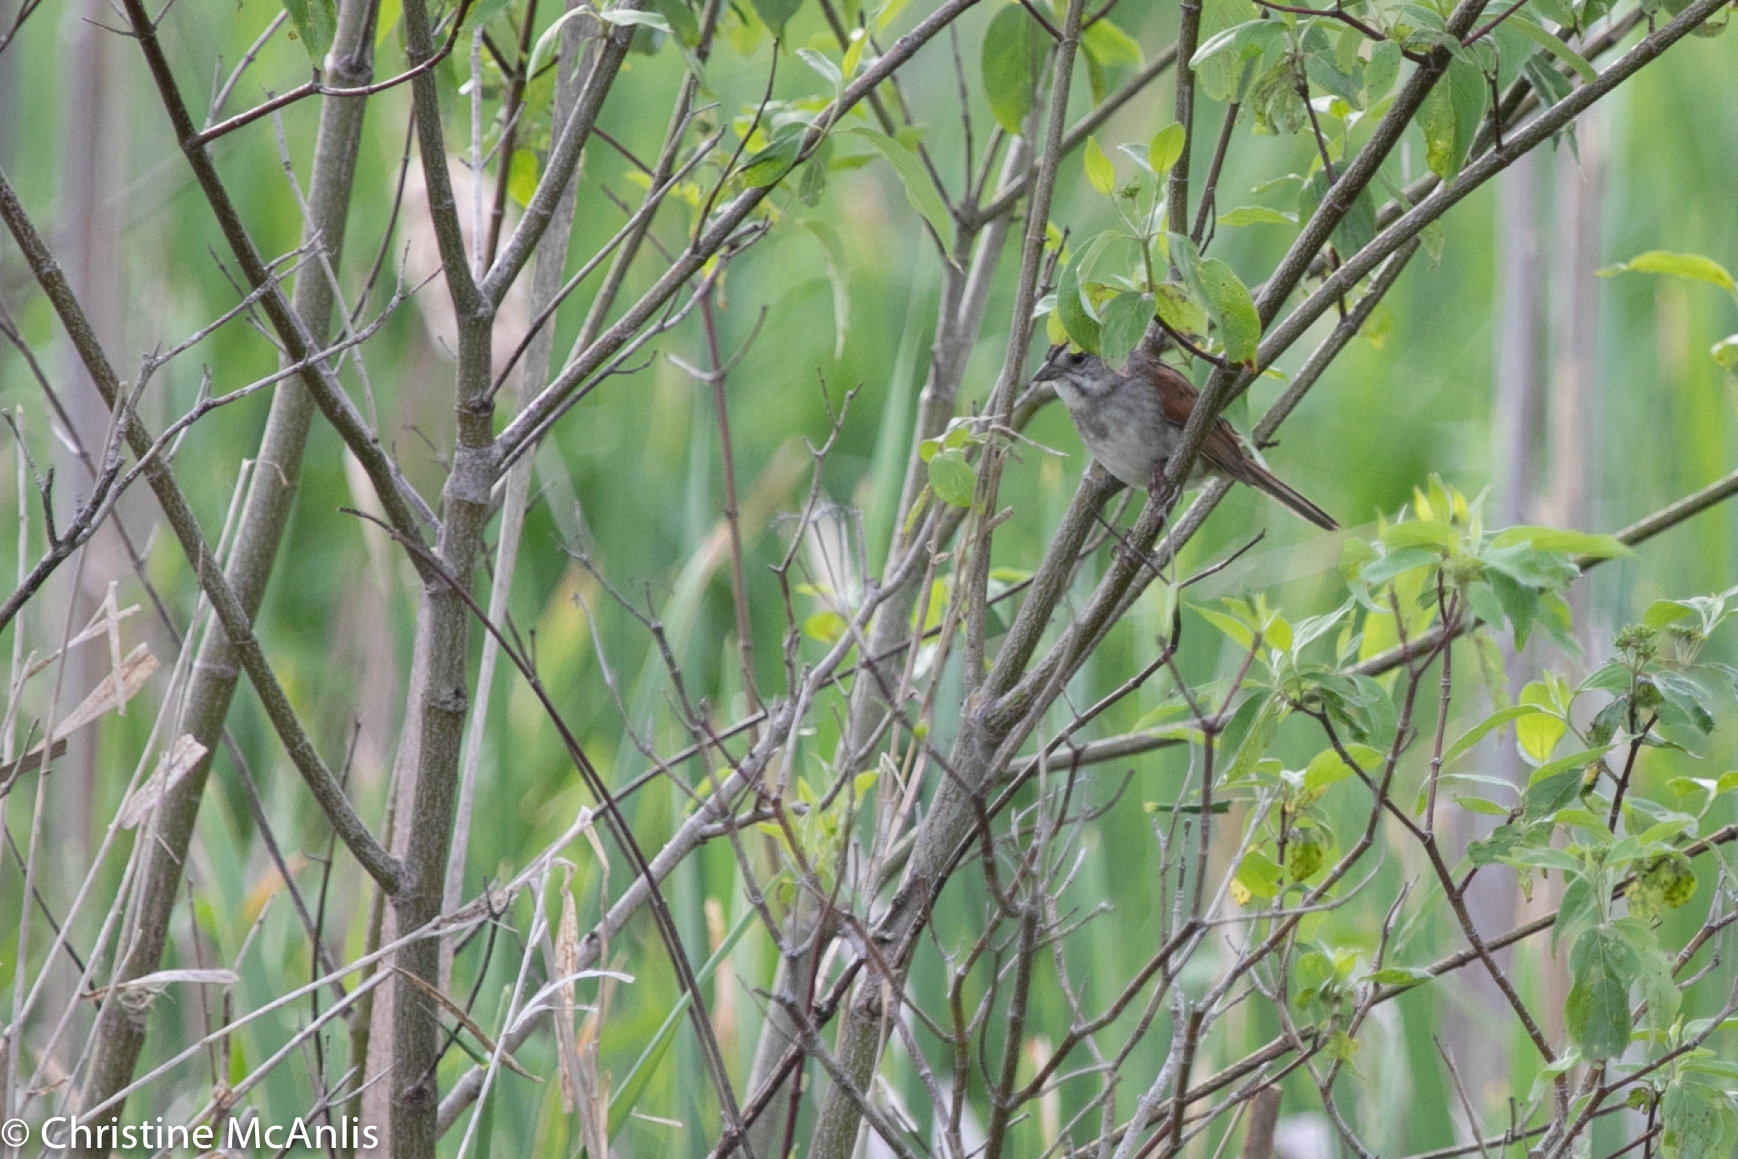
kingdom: Animalia
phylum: Chordata
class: Aves
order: Passeriformes
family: Passerellidae
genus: Melospiza
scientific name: Melospiza georgiana
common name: Swamp sparrow
